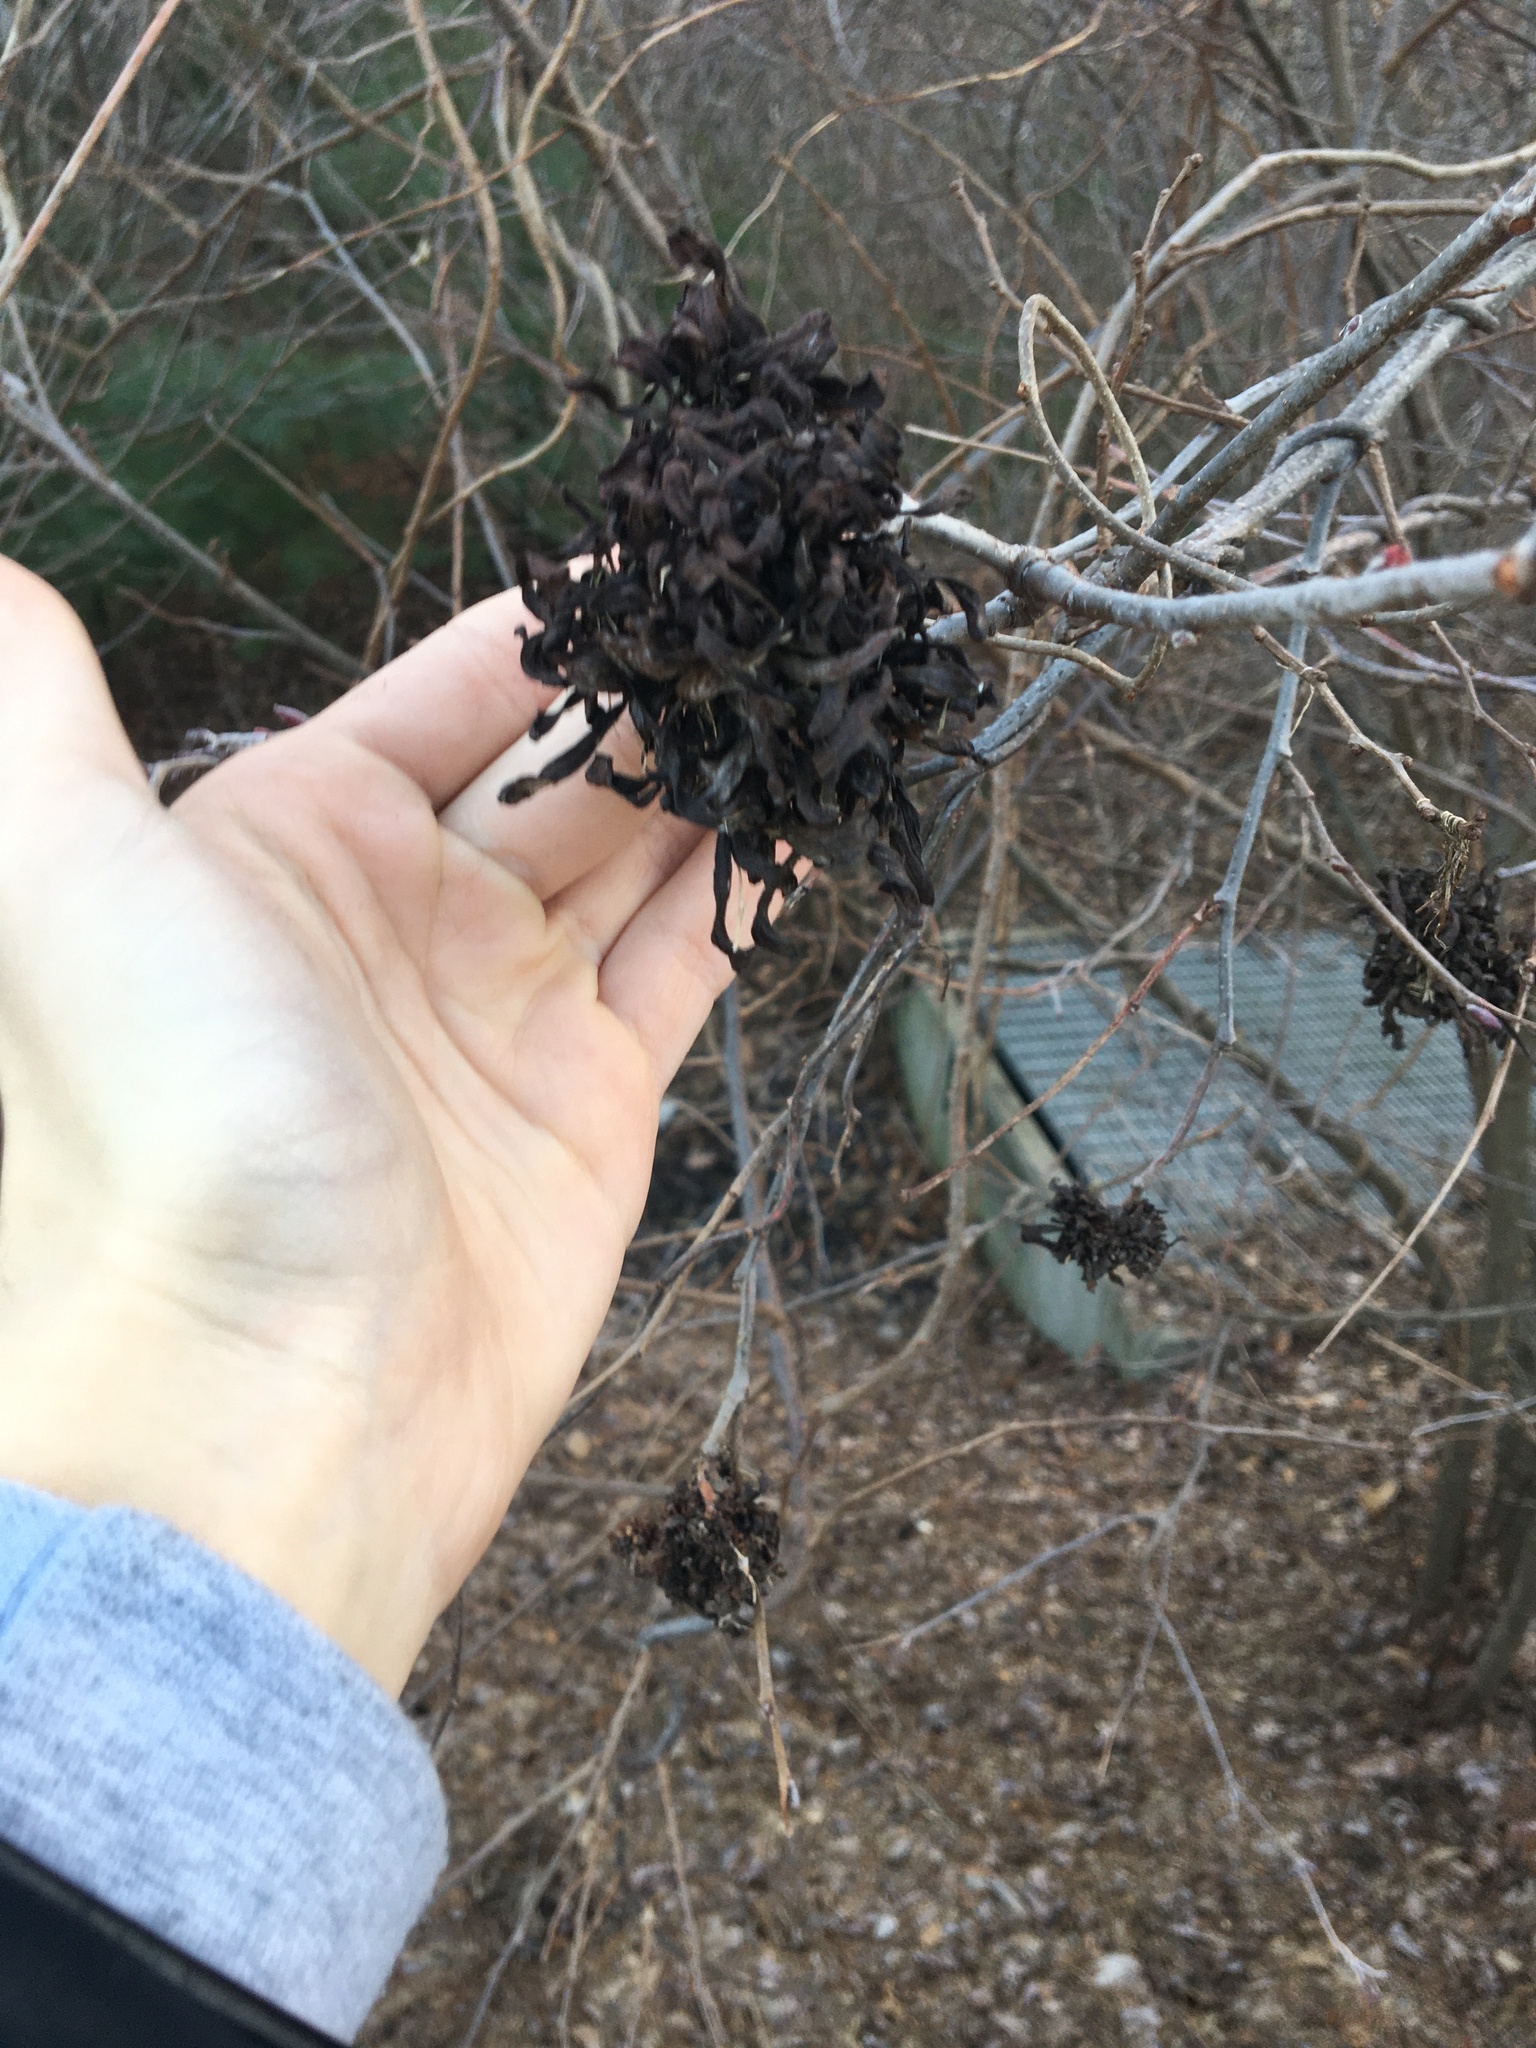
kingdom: Fungi
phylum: Ascomycota
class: Taphrinomycetes
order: Taphrinales
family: Taphrinaceae
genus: Taphrina
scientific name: Taphrina robinsoniana
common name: Eastern american alder tongue gall fungus
